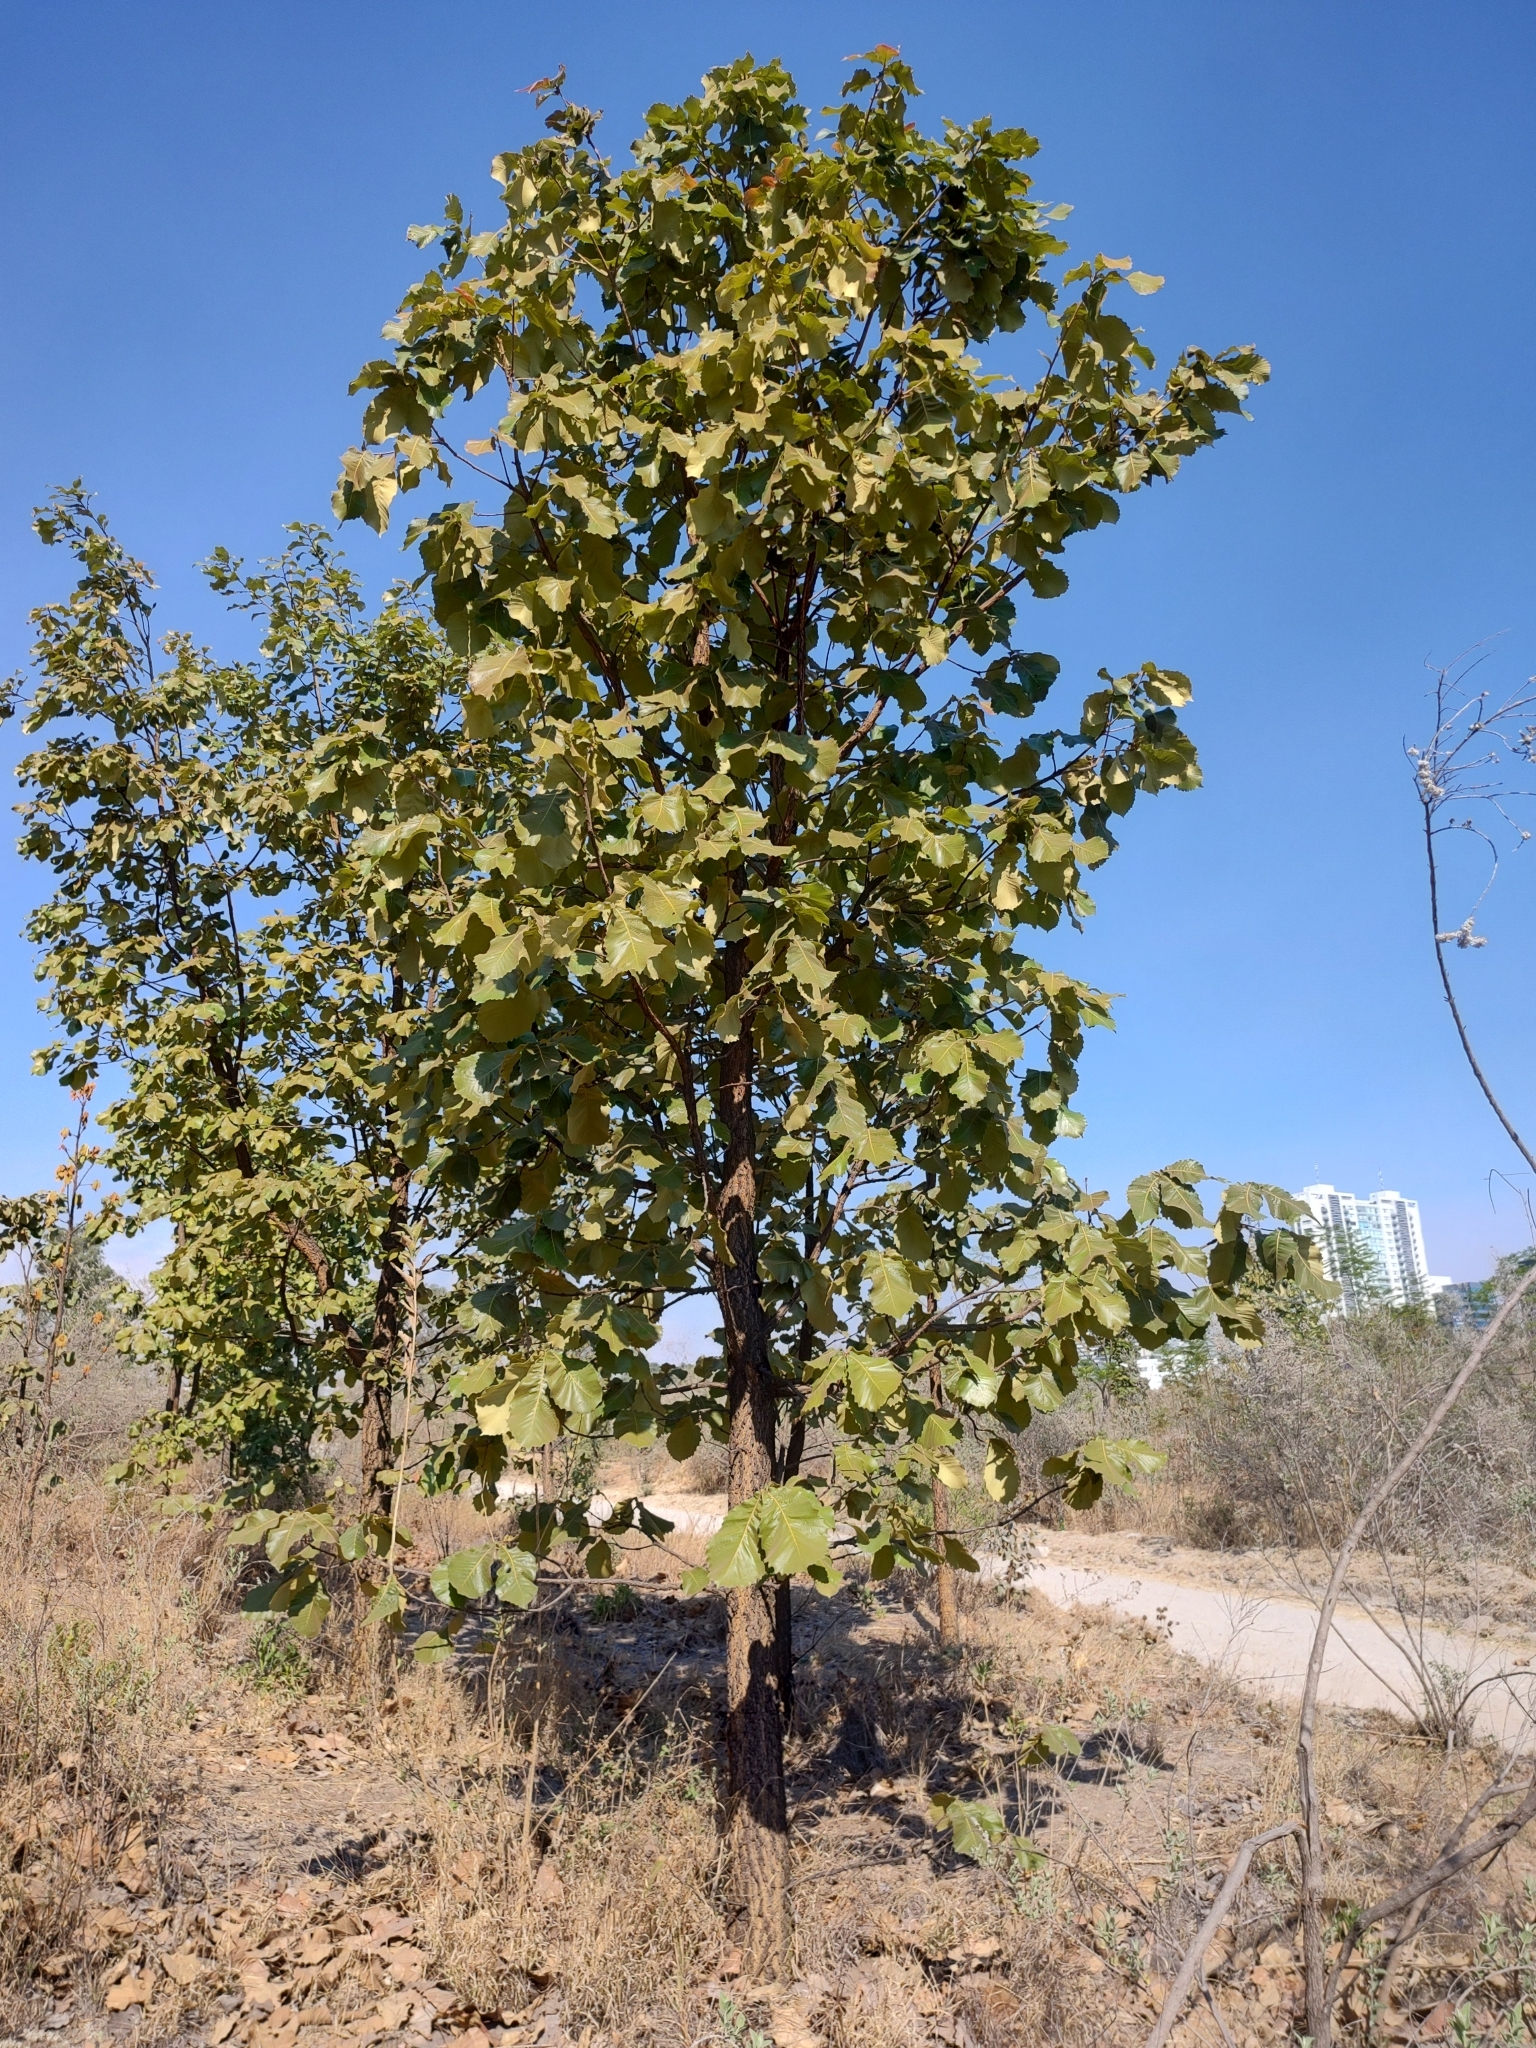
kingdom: Plantae
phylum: Tracheophyta
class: Magnoliopsida
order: Fagales
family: Fagaceae
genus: Quercus
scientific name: Quercus resinosa
